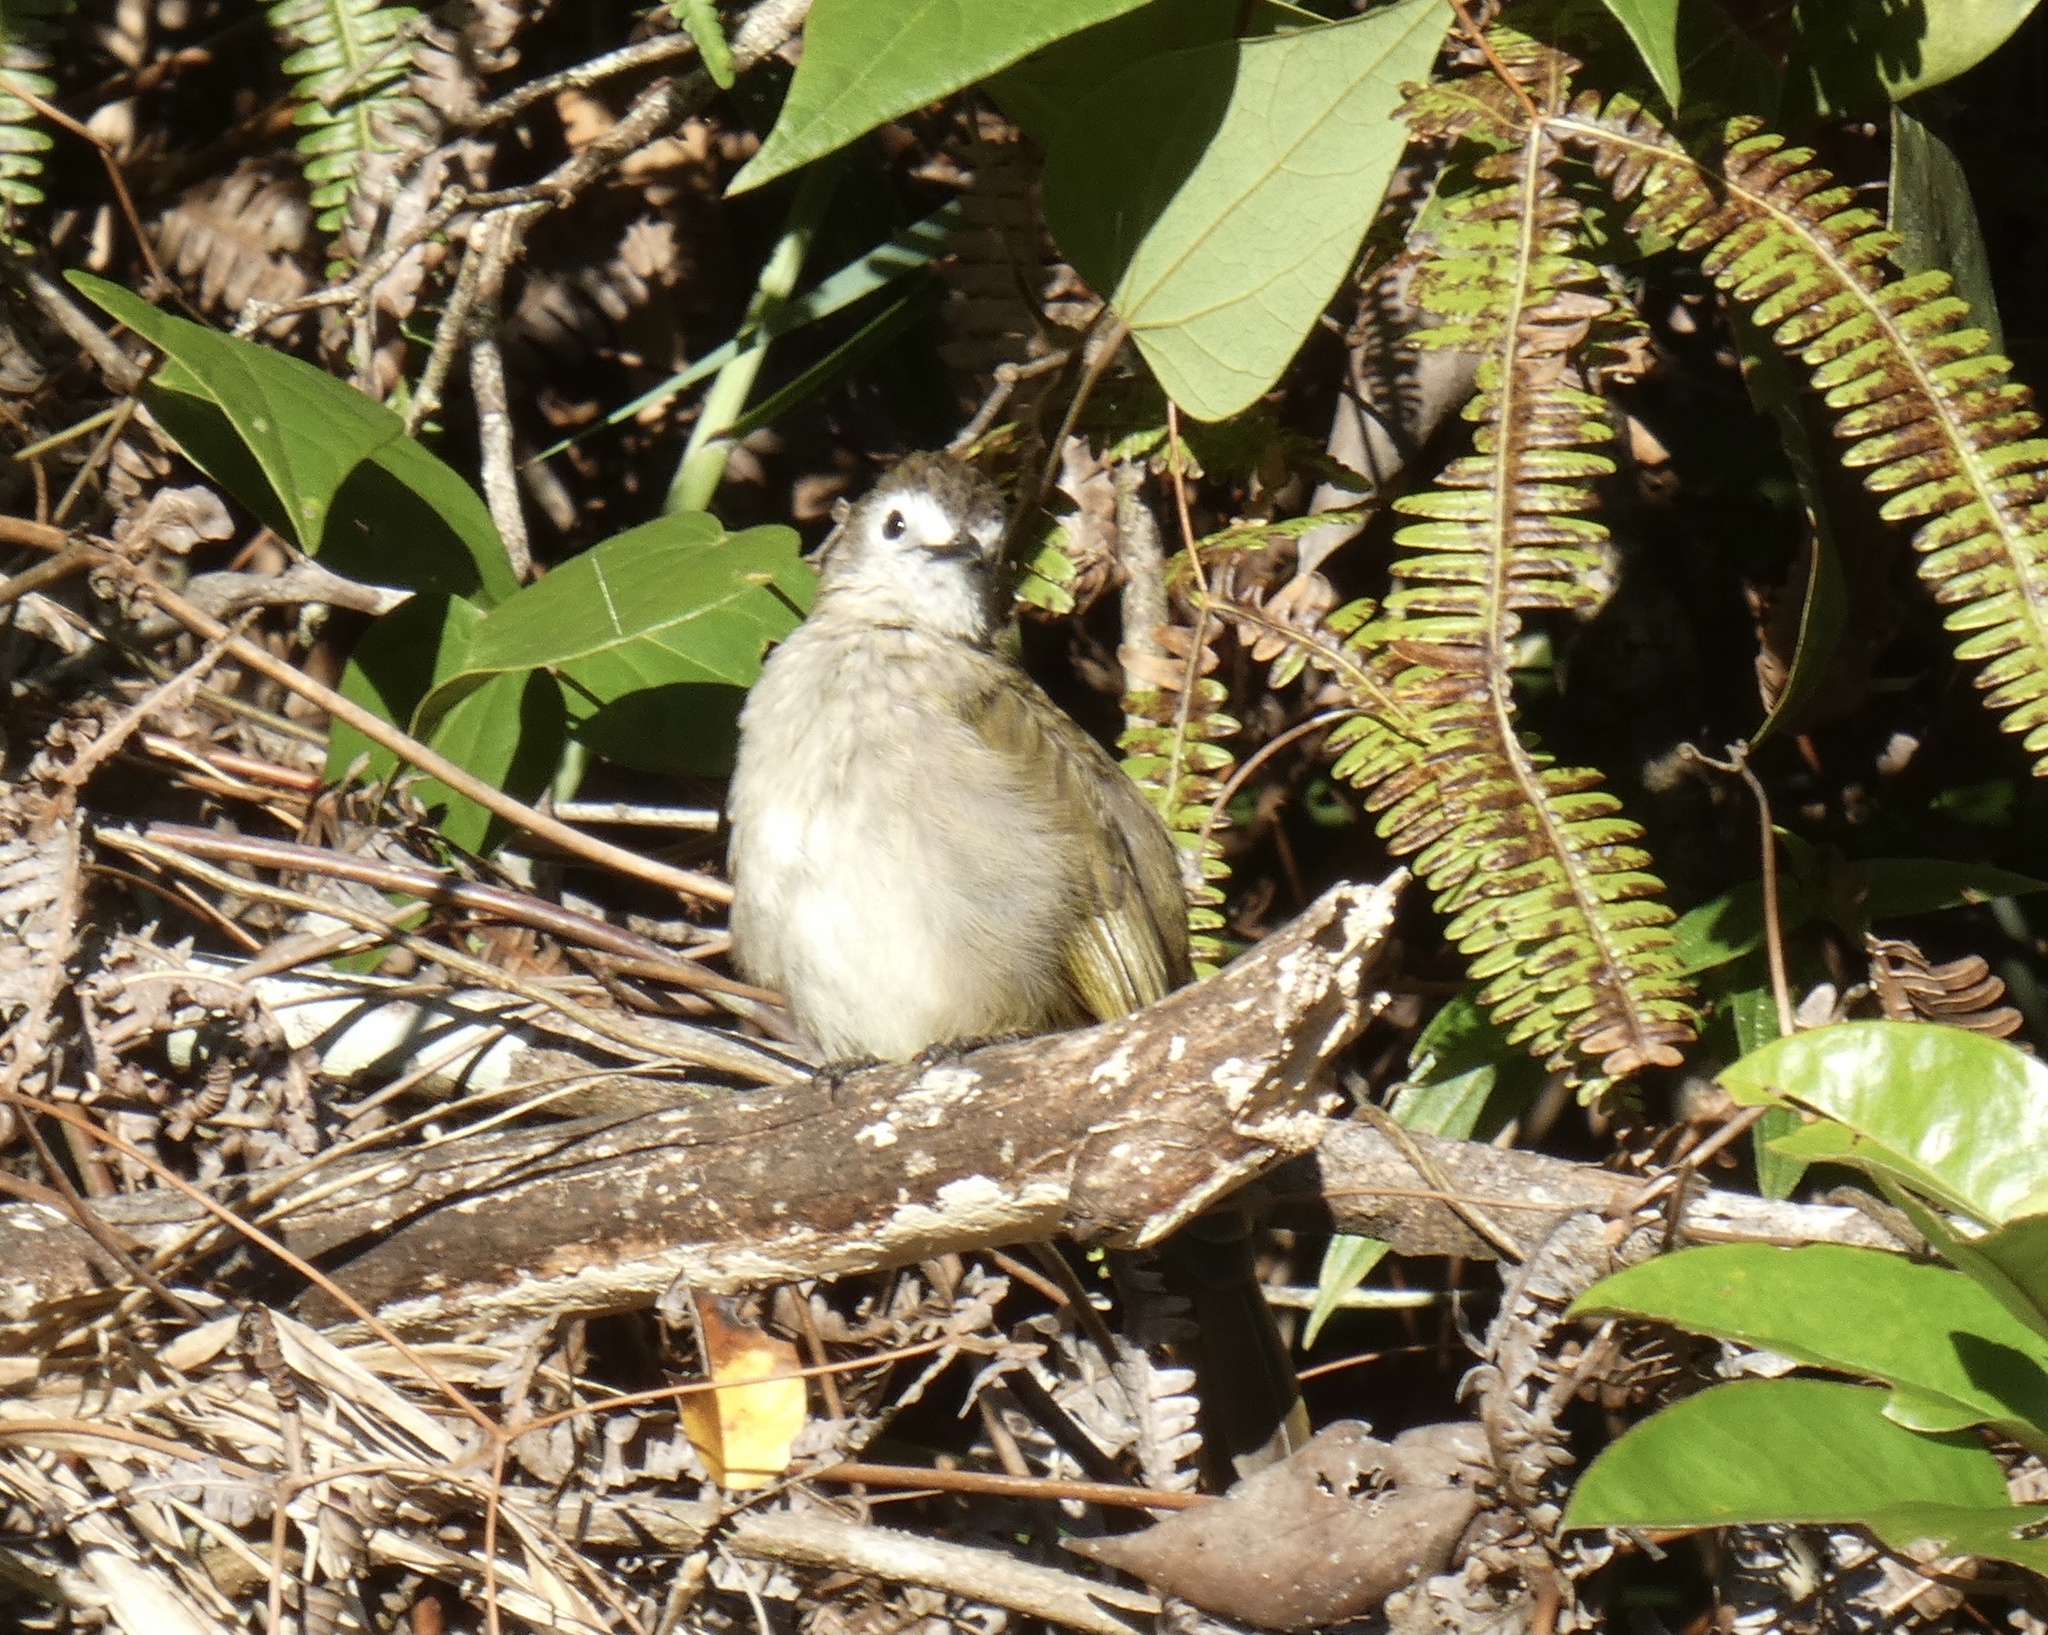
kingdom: Animalia
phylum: Chordata
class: Aves
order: Passeriformes
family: Pycnonotidae
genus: Pycnonotus
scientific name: Pycnonotus flavescens
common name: Flavescent bulbul
